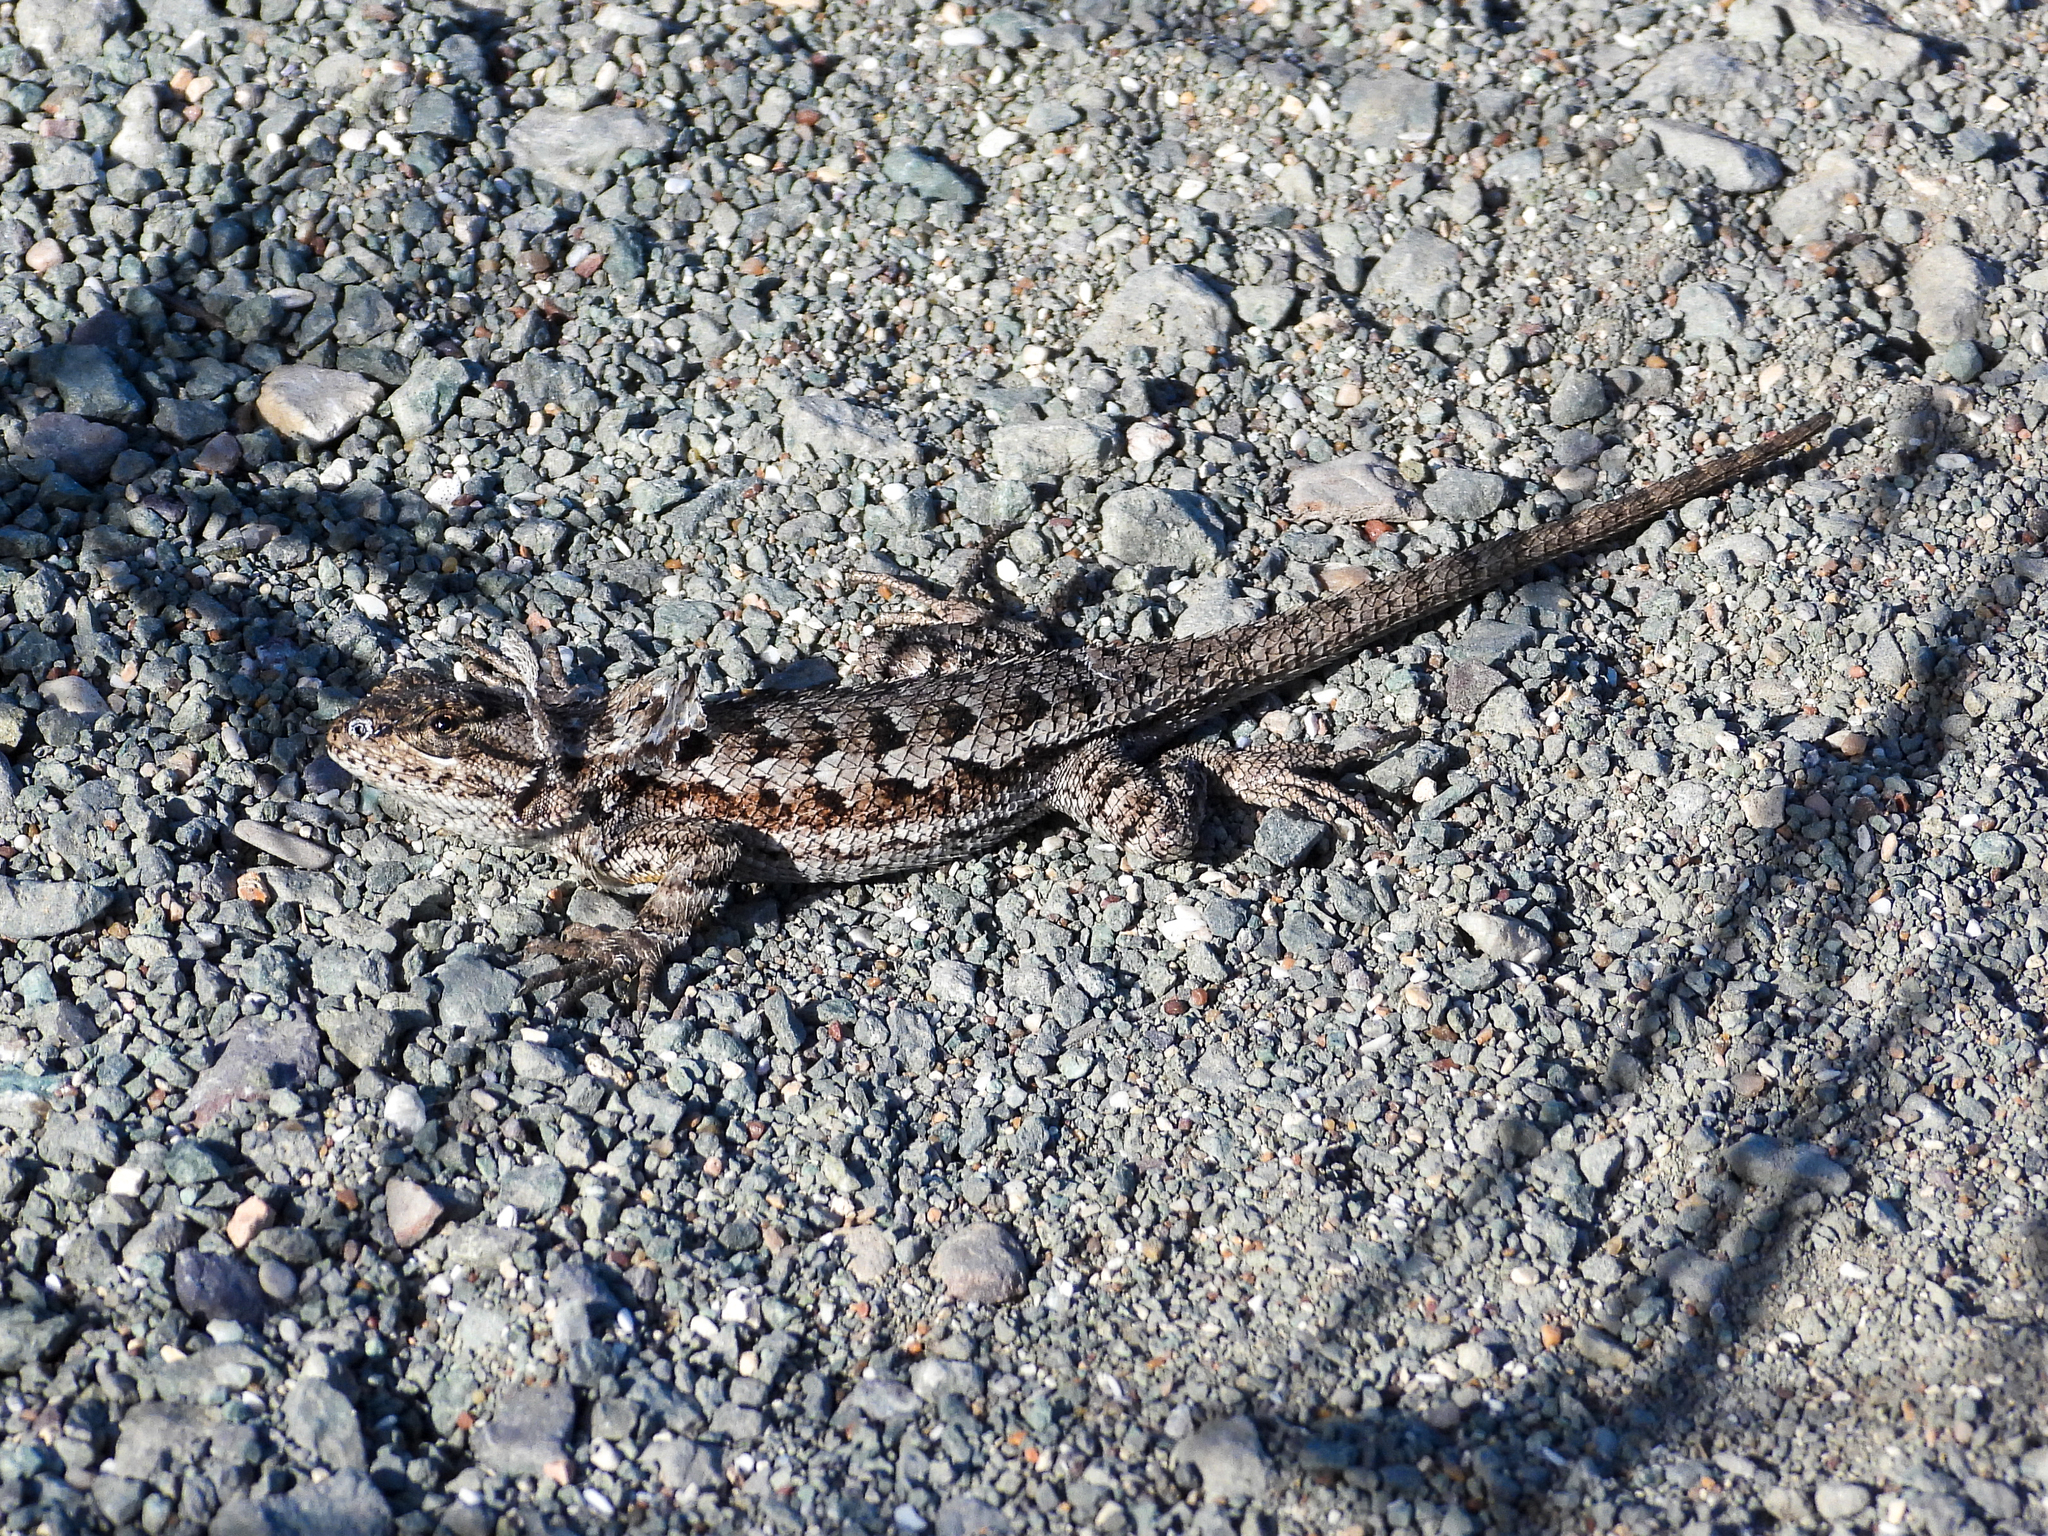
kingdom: Animalia
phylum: Chordata
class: Squamata
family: Phrynosomatidae
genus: Sceloporus
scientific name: Sceloporus occidentalis
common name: Western fence lizard
